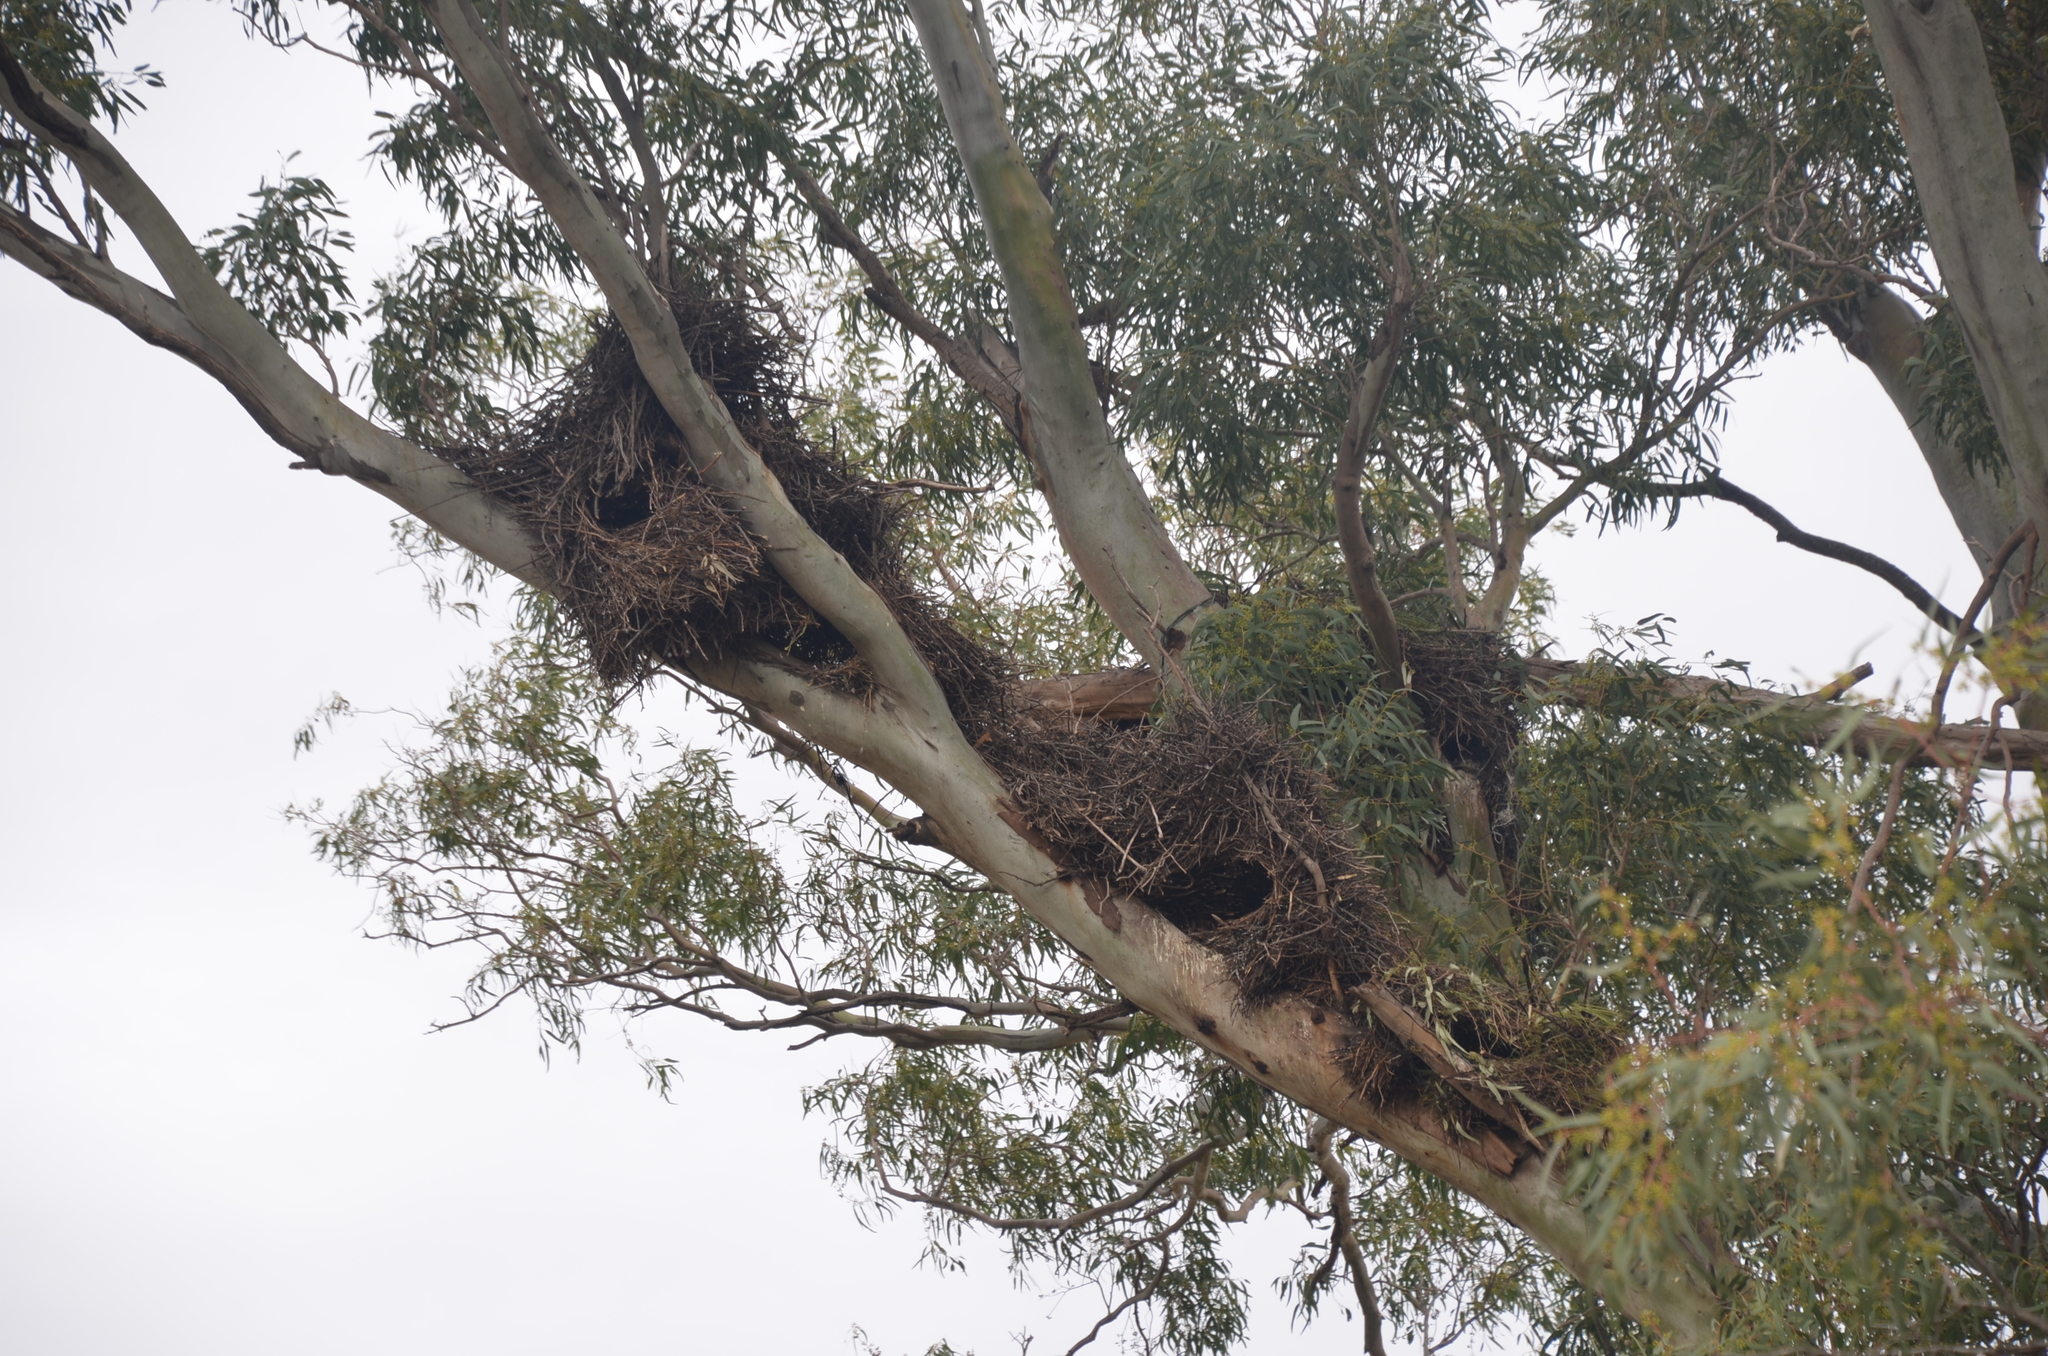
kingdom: Animalia
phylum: Chordata
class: Aves
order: Psittaciformes
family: Psittacidae
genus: Myiopsitta
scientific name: Myiopsitta monachus
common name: Monk parakeet
